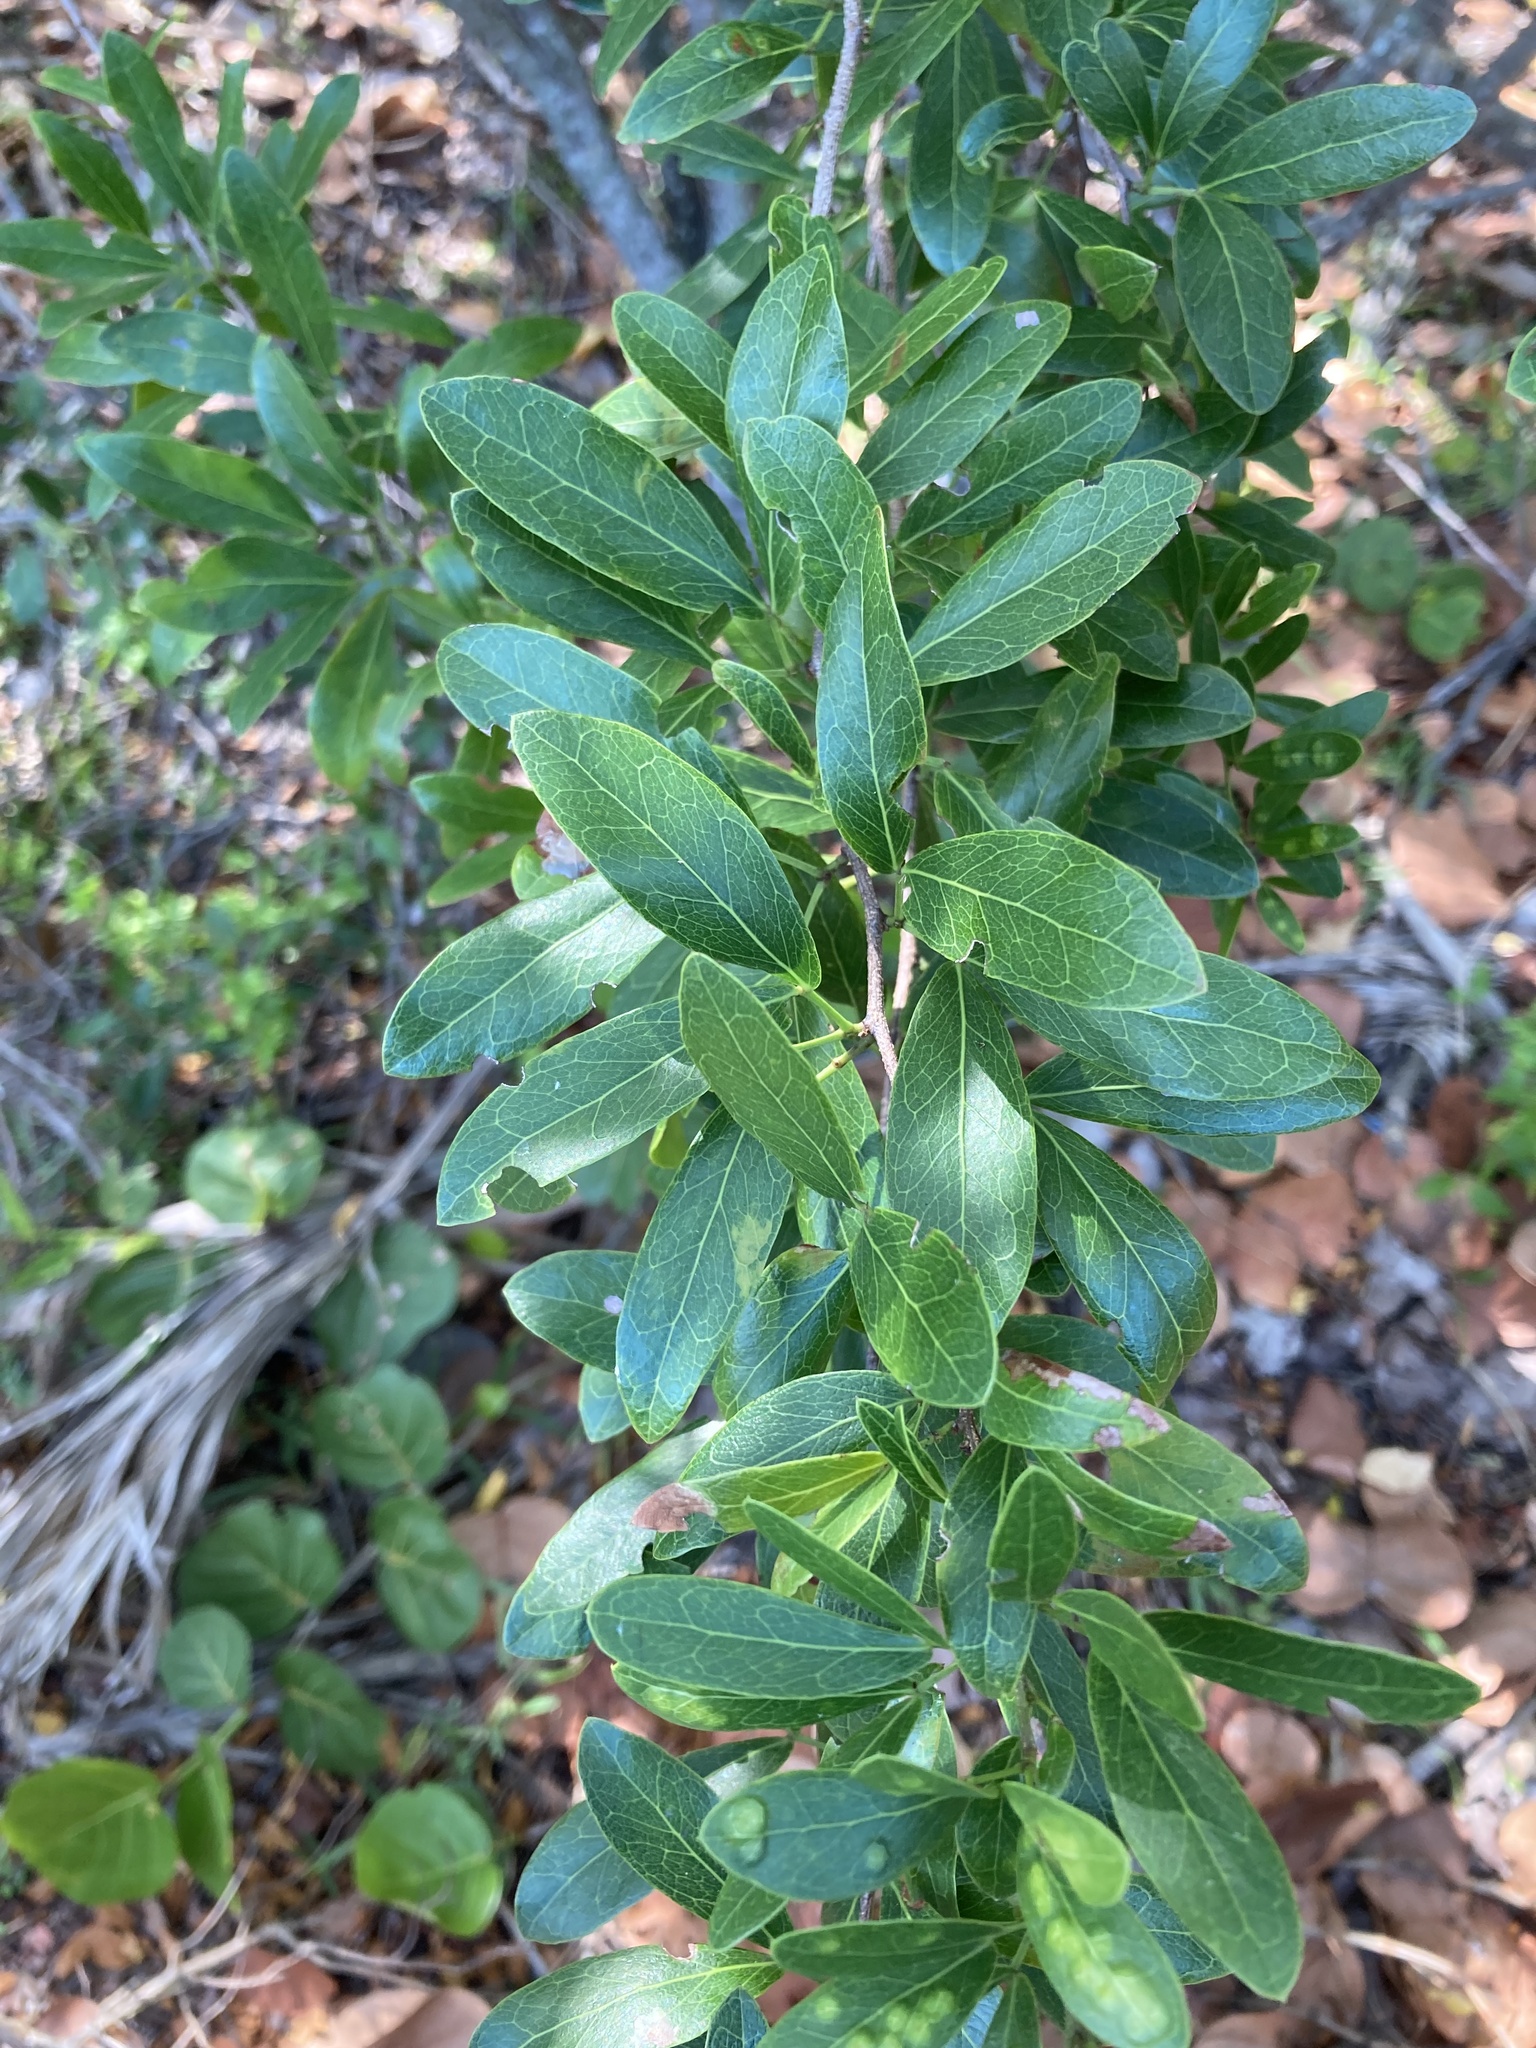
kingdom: Plantae
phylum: Tracheophyta
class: Magnoliopsida
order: Fabales
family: Fabaceae
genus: Pithecellobium
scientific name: Pithecellobium keyense
